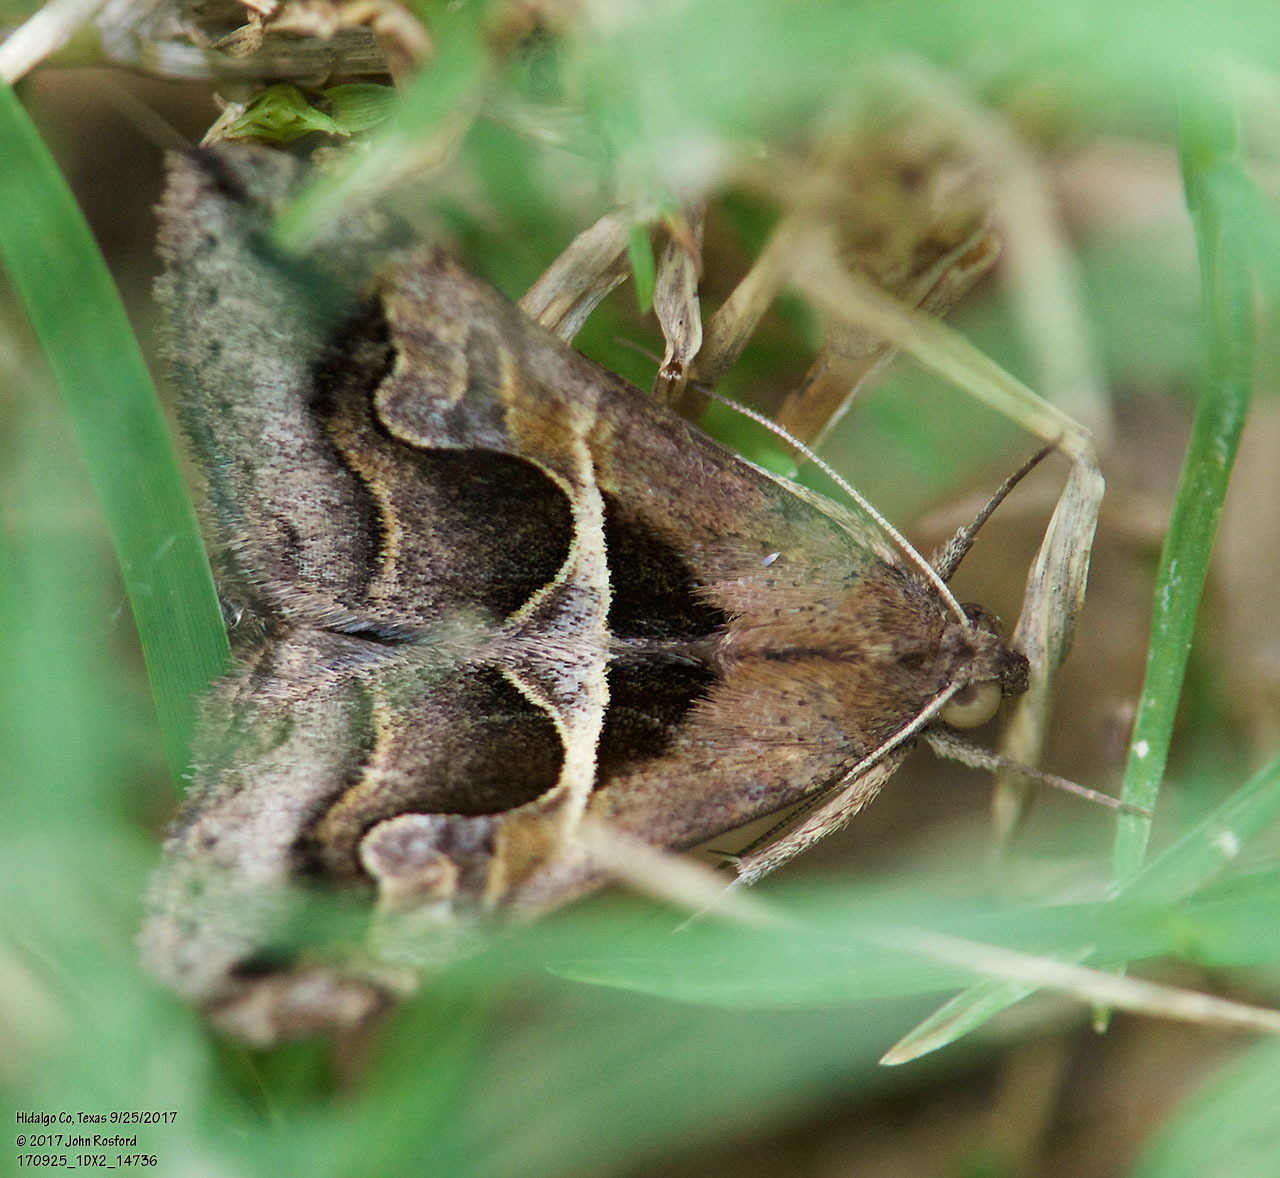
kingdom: Animalia
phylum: Arthropoda
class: Insecta
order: Lepidoptera
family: Erebidae
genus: Melipotis
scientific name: Melipotis cellaris
